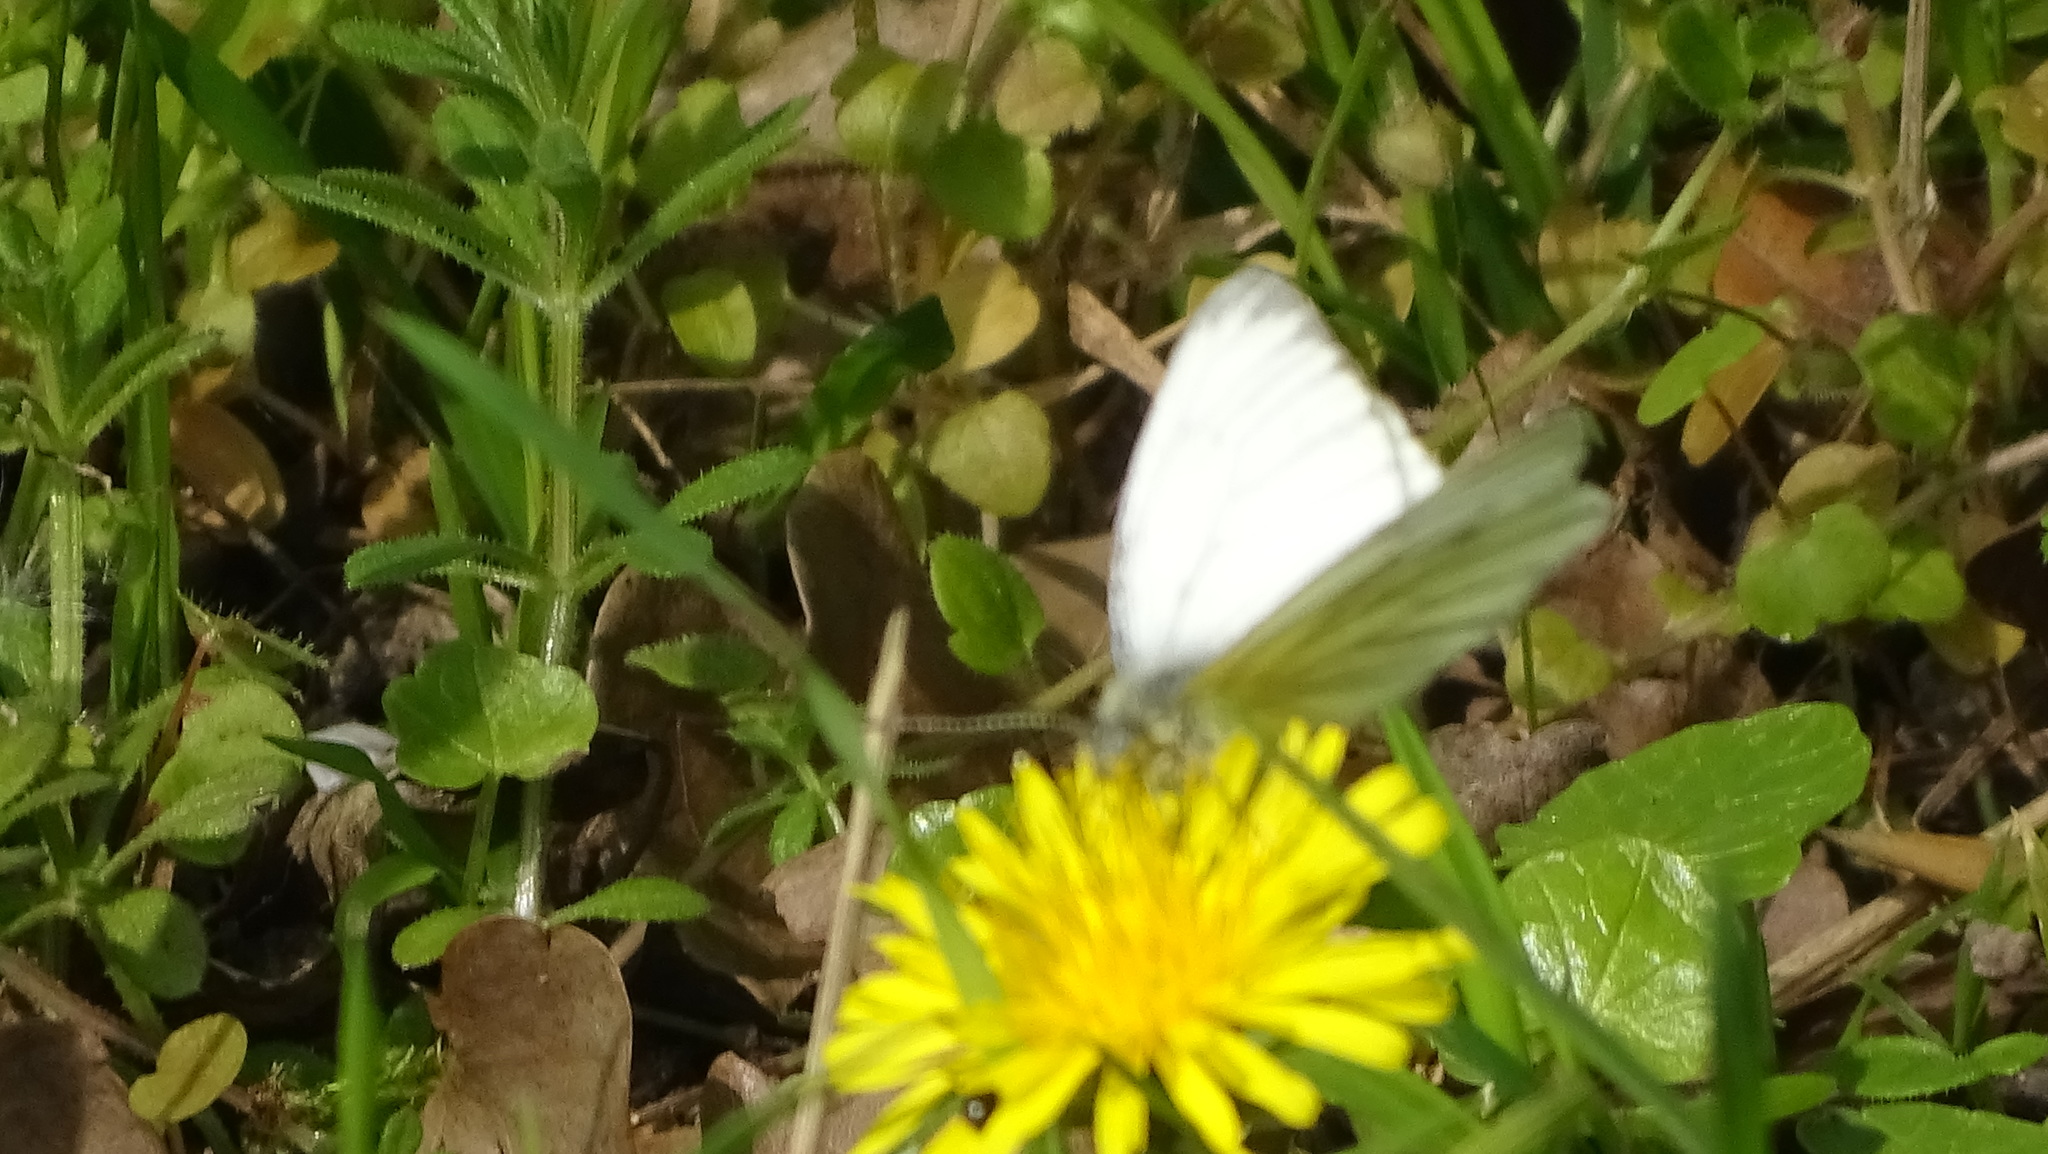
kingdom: Animalia
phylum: Arthropoda
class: Insecta
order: Lepidoptera
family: Pieridae
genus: Pieris
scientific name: Pieris napi
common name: Green-veined white
